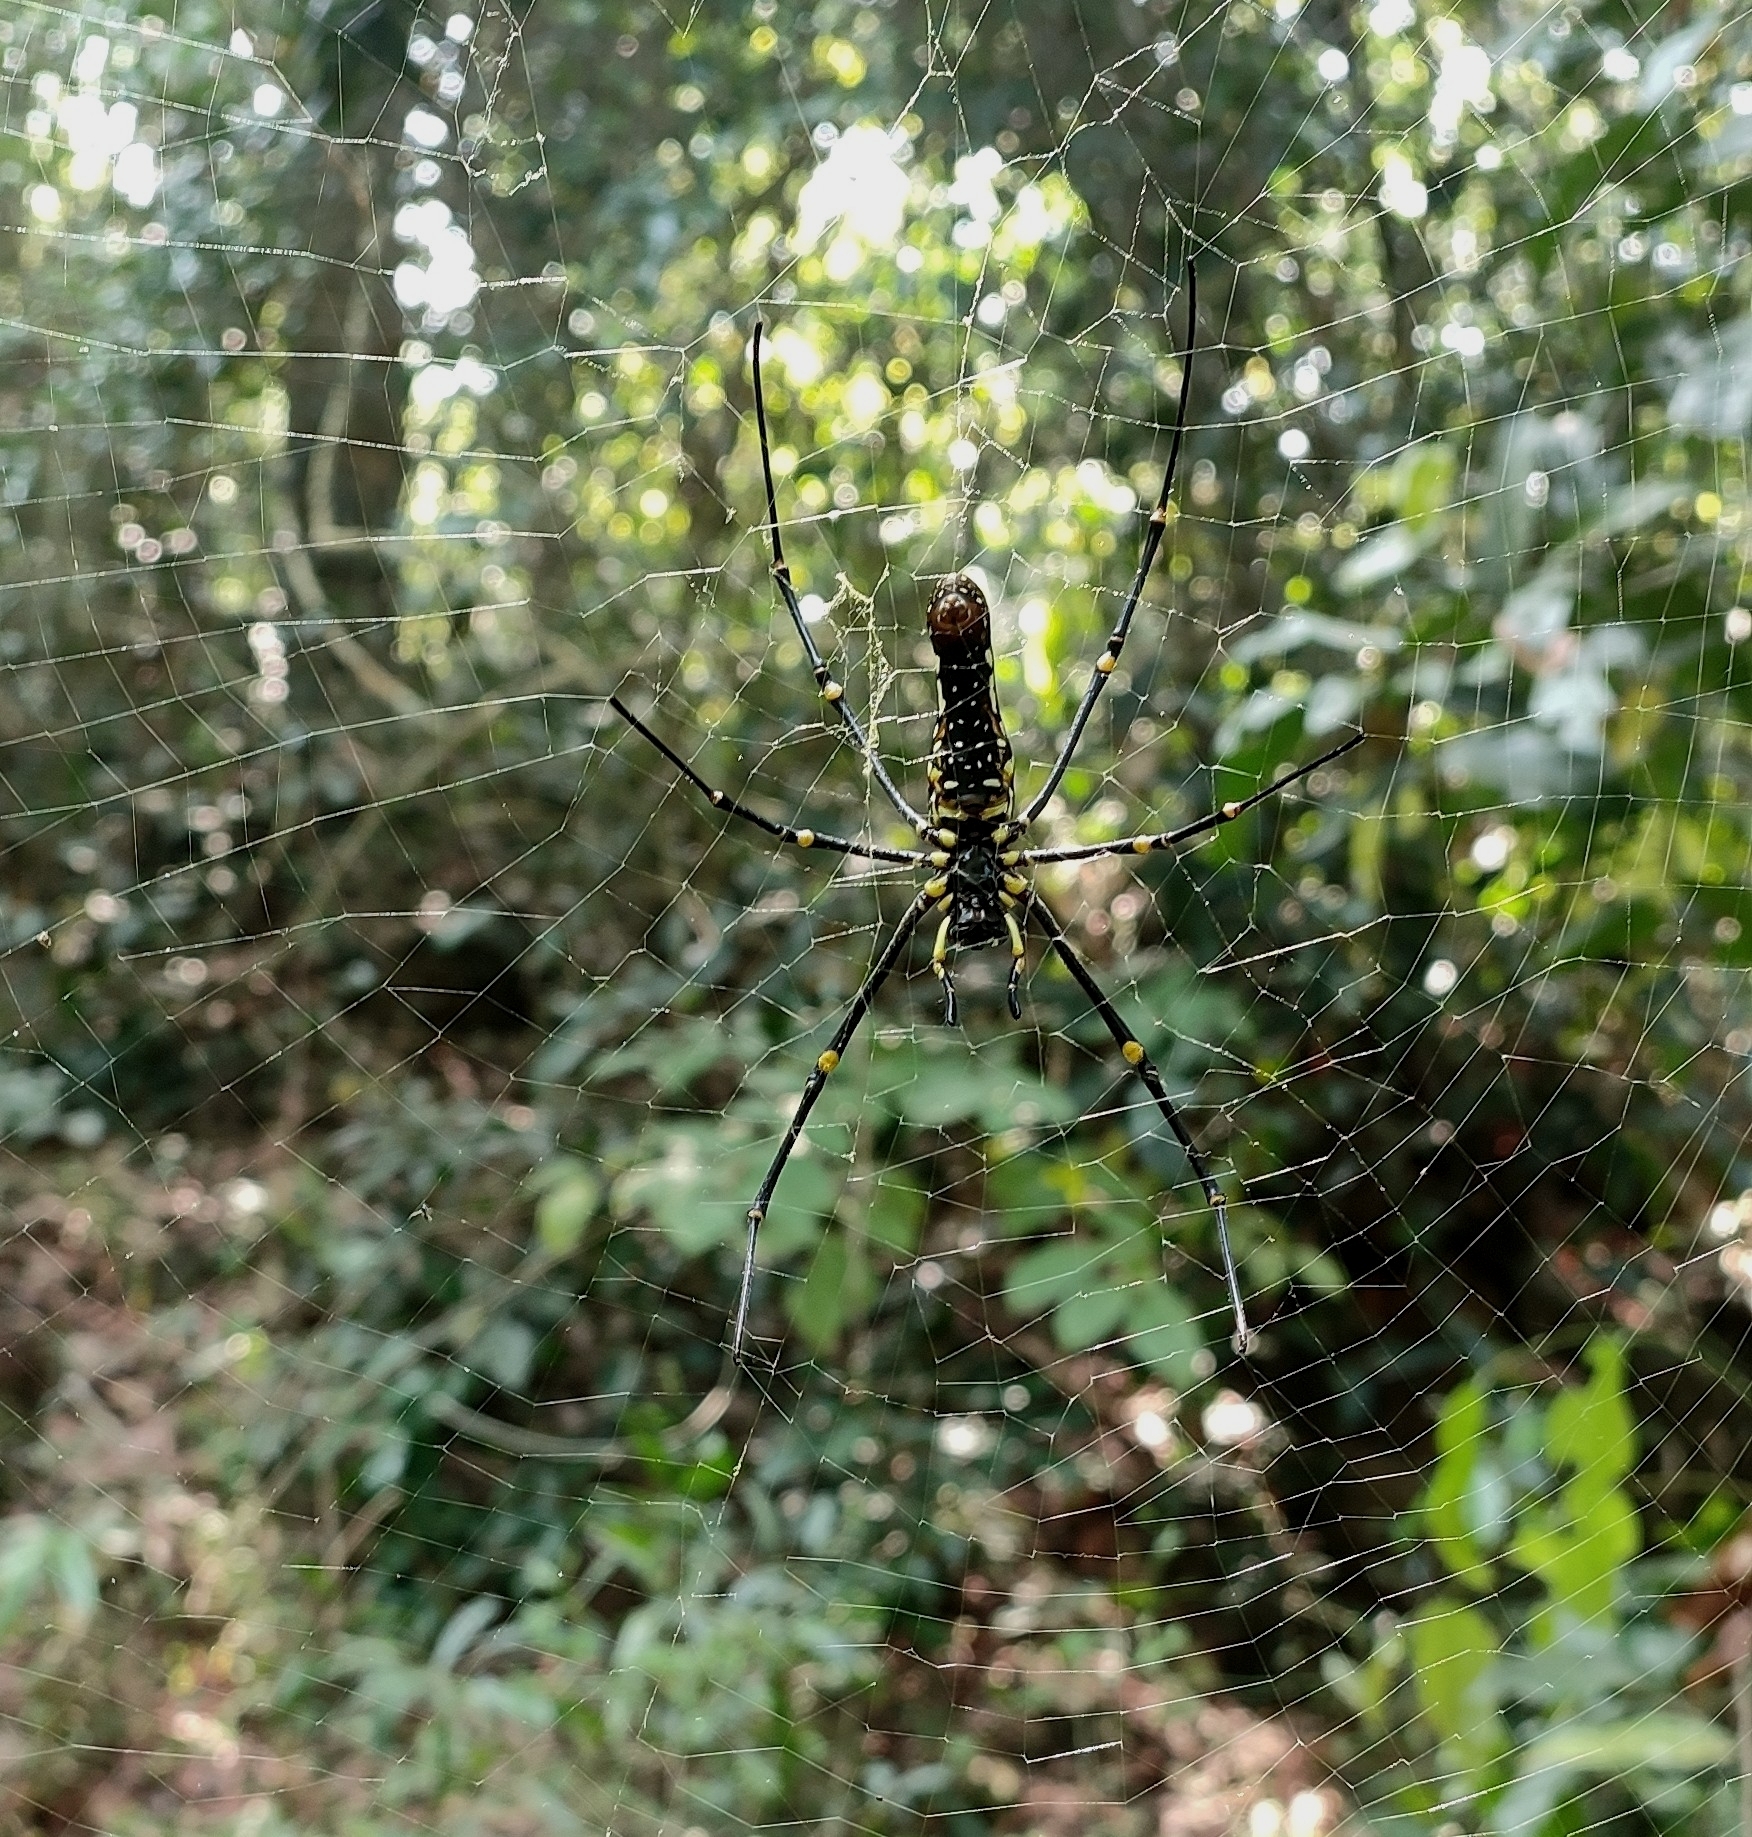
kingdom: Animalia
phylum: Arthropoda
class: Arachnida
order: Araneae
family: Araneidae
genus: Nephila
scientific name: Nephila pilipes
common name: Giant golden orb weaver
